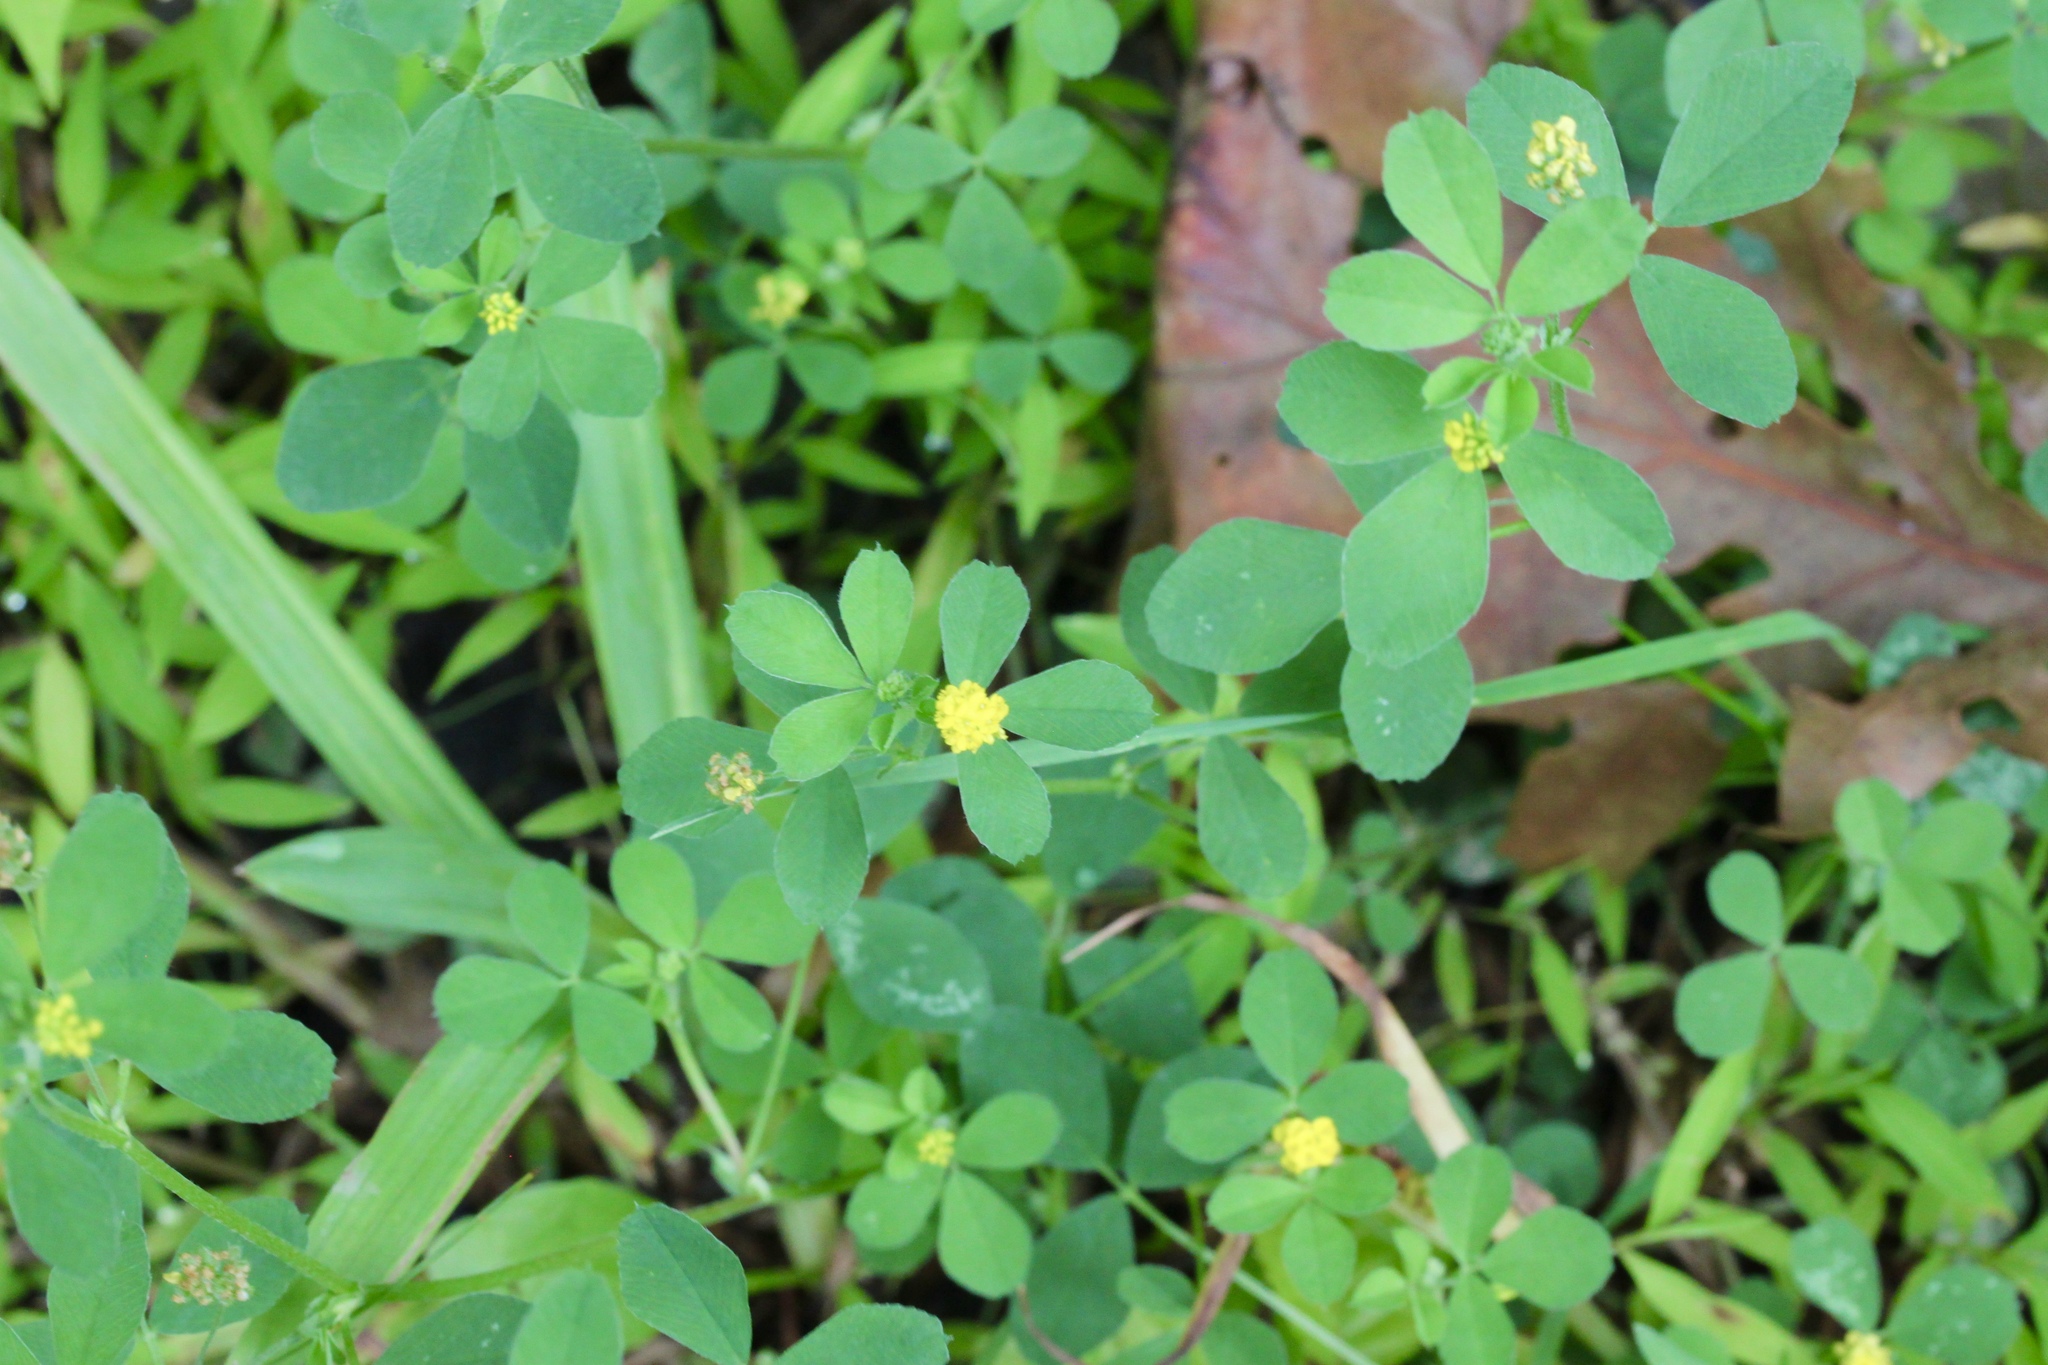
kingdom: Plantae
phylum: Tracheophyta
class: Magnoliopsida
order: Fabales
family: Fabaceae
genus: Medicago
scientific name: Medicago lupulina
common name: Black medick
